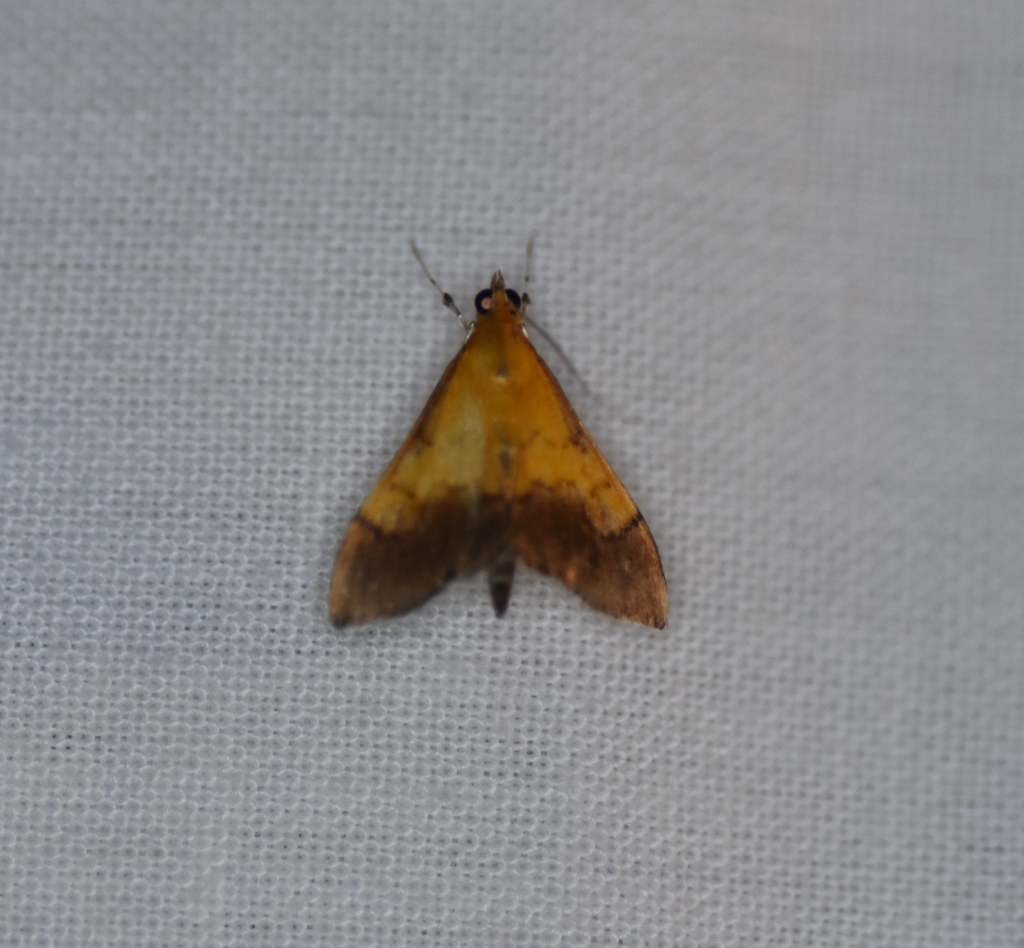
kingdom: Animalia
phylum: Arthropoda
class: Insecta
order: Lepidoptera
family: Crambidae
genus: Pyrausta
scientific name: Pyrausta bicoloralis
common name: Bicolored pyrausta moth
